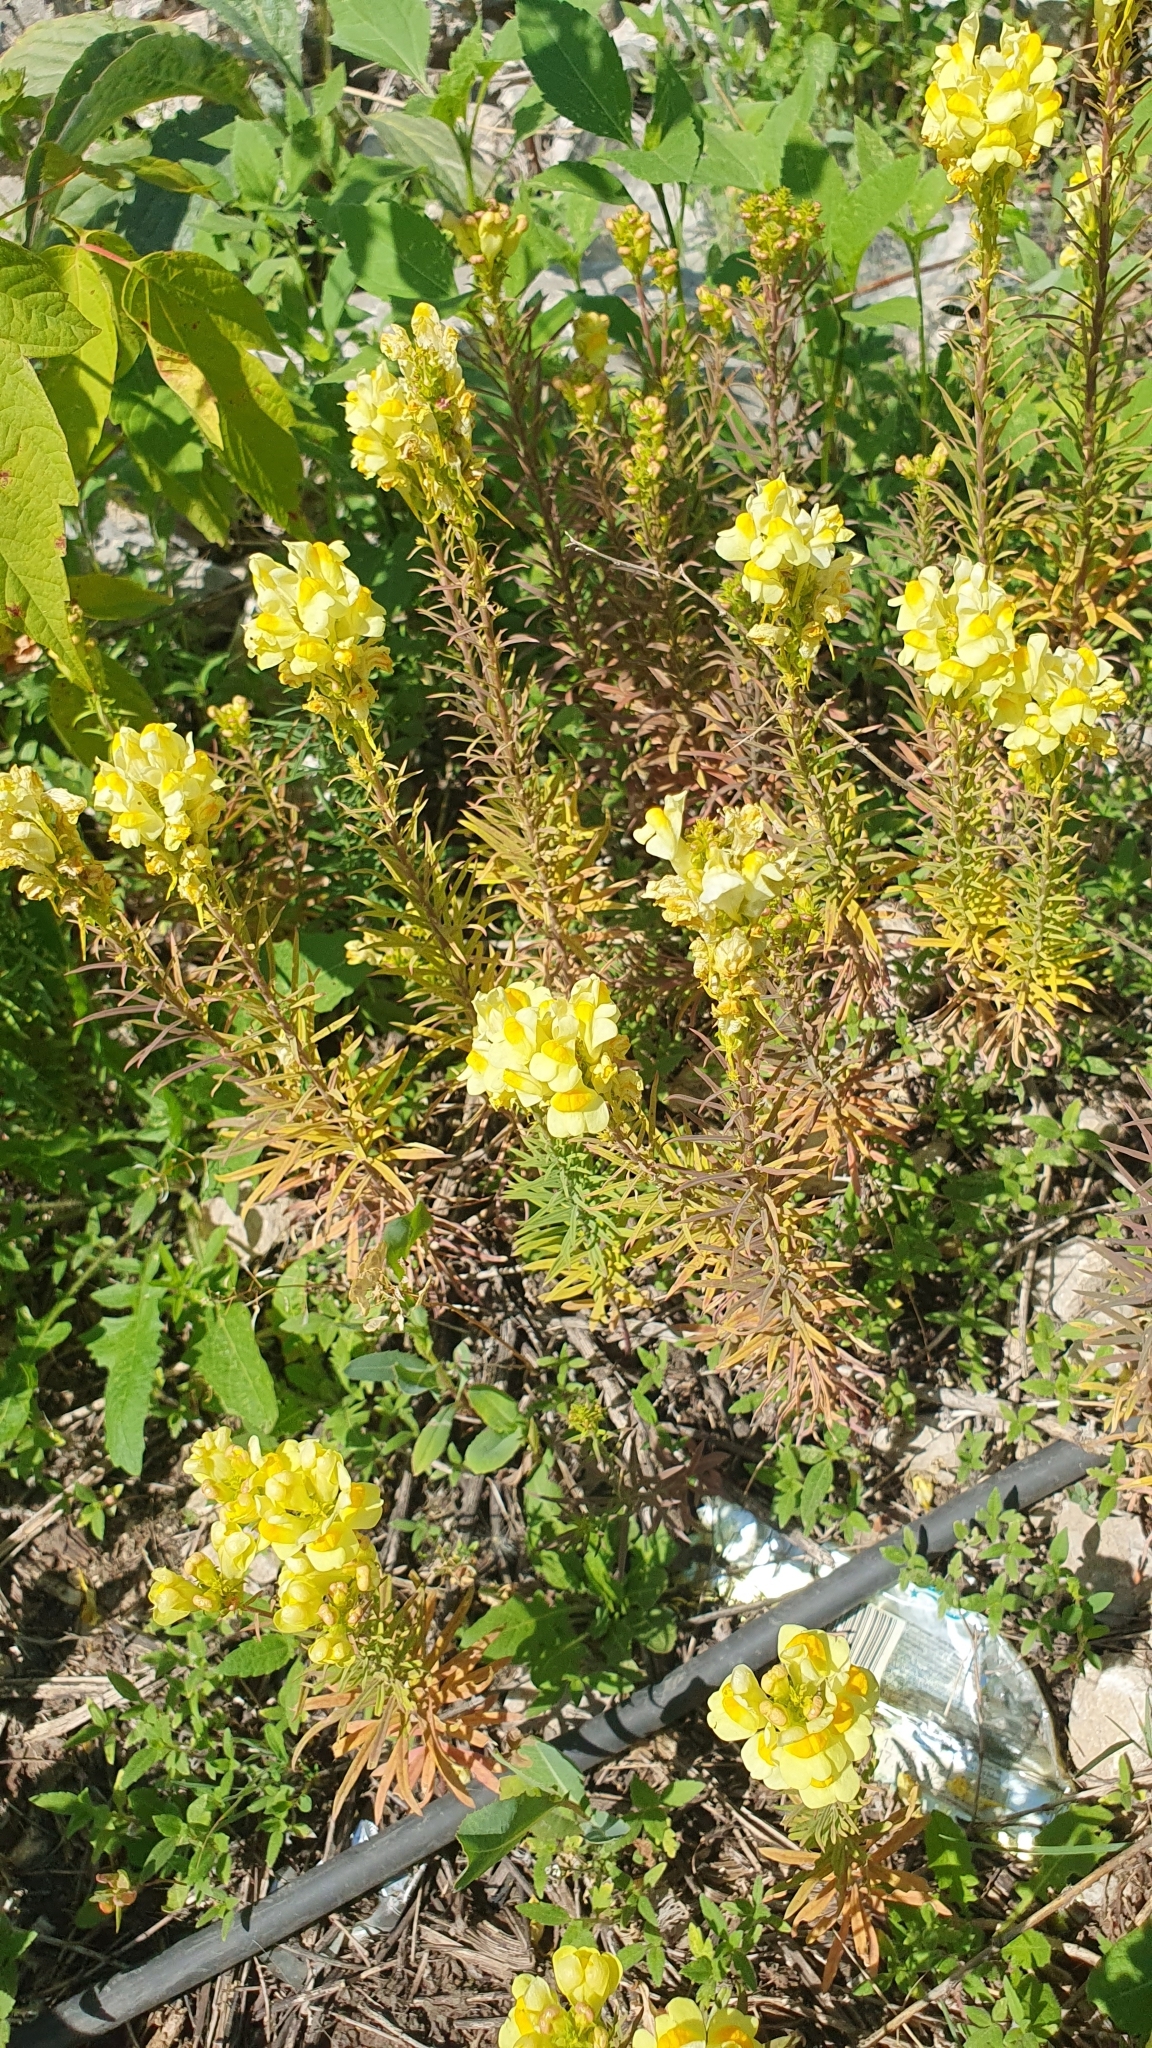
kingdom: Plantae
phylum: Tracheophyta
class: Magnoliopsida
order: Lamiales
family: Plantaginaceae
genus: Linaria
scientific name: Linaria vulgaris
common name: Butter and eggs
